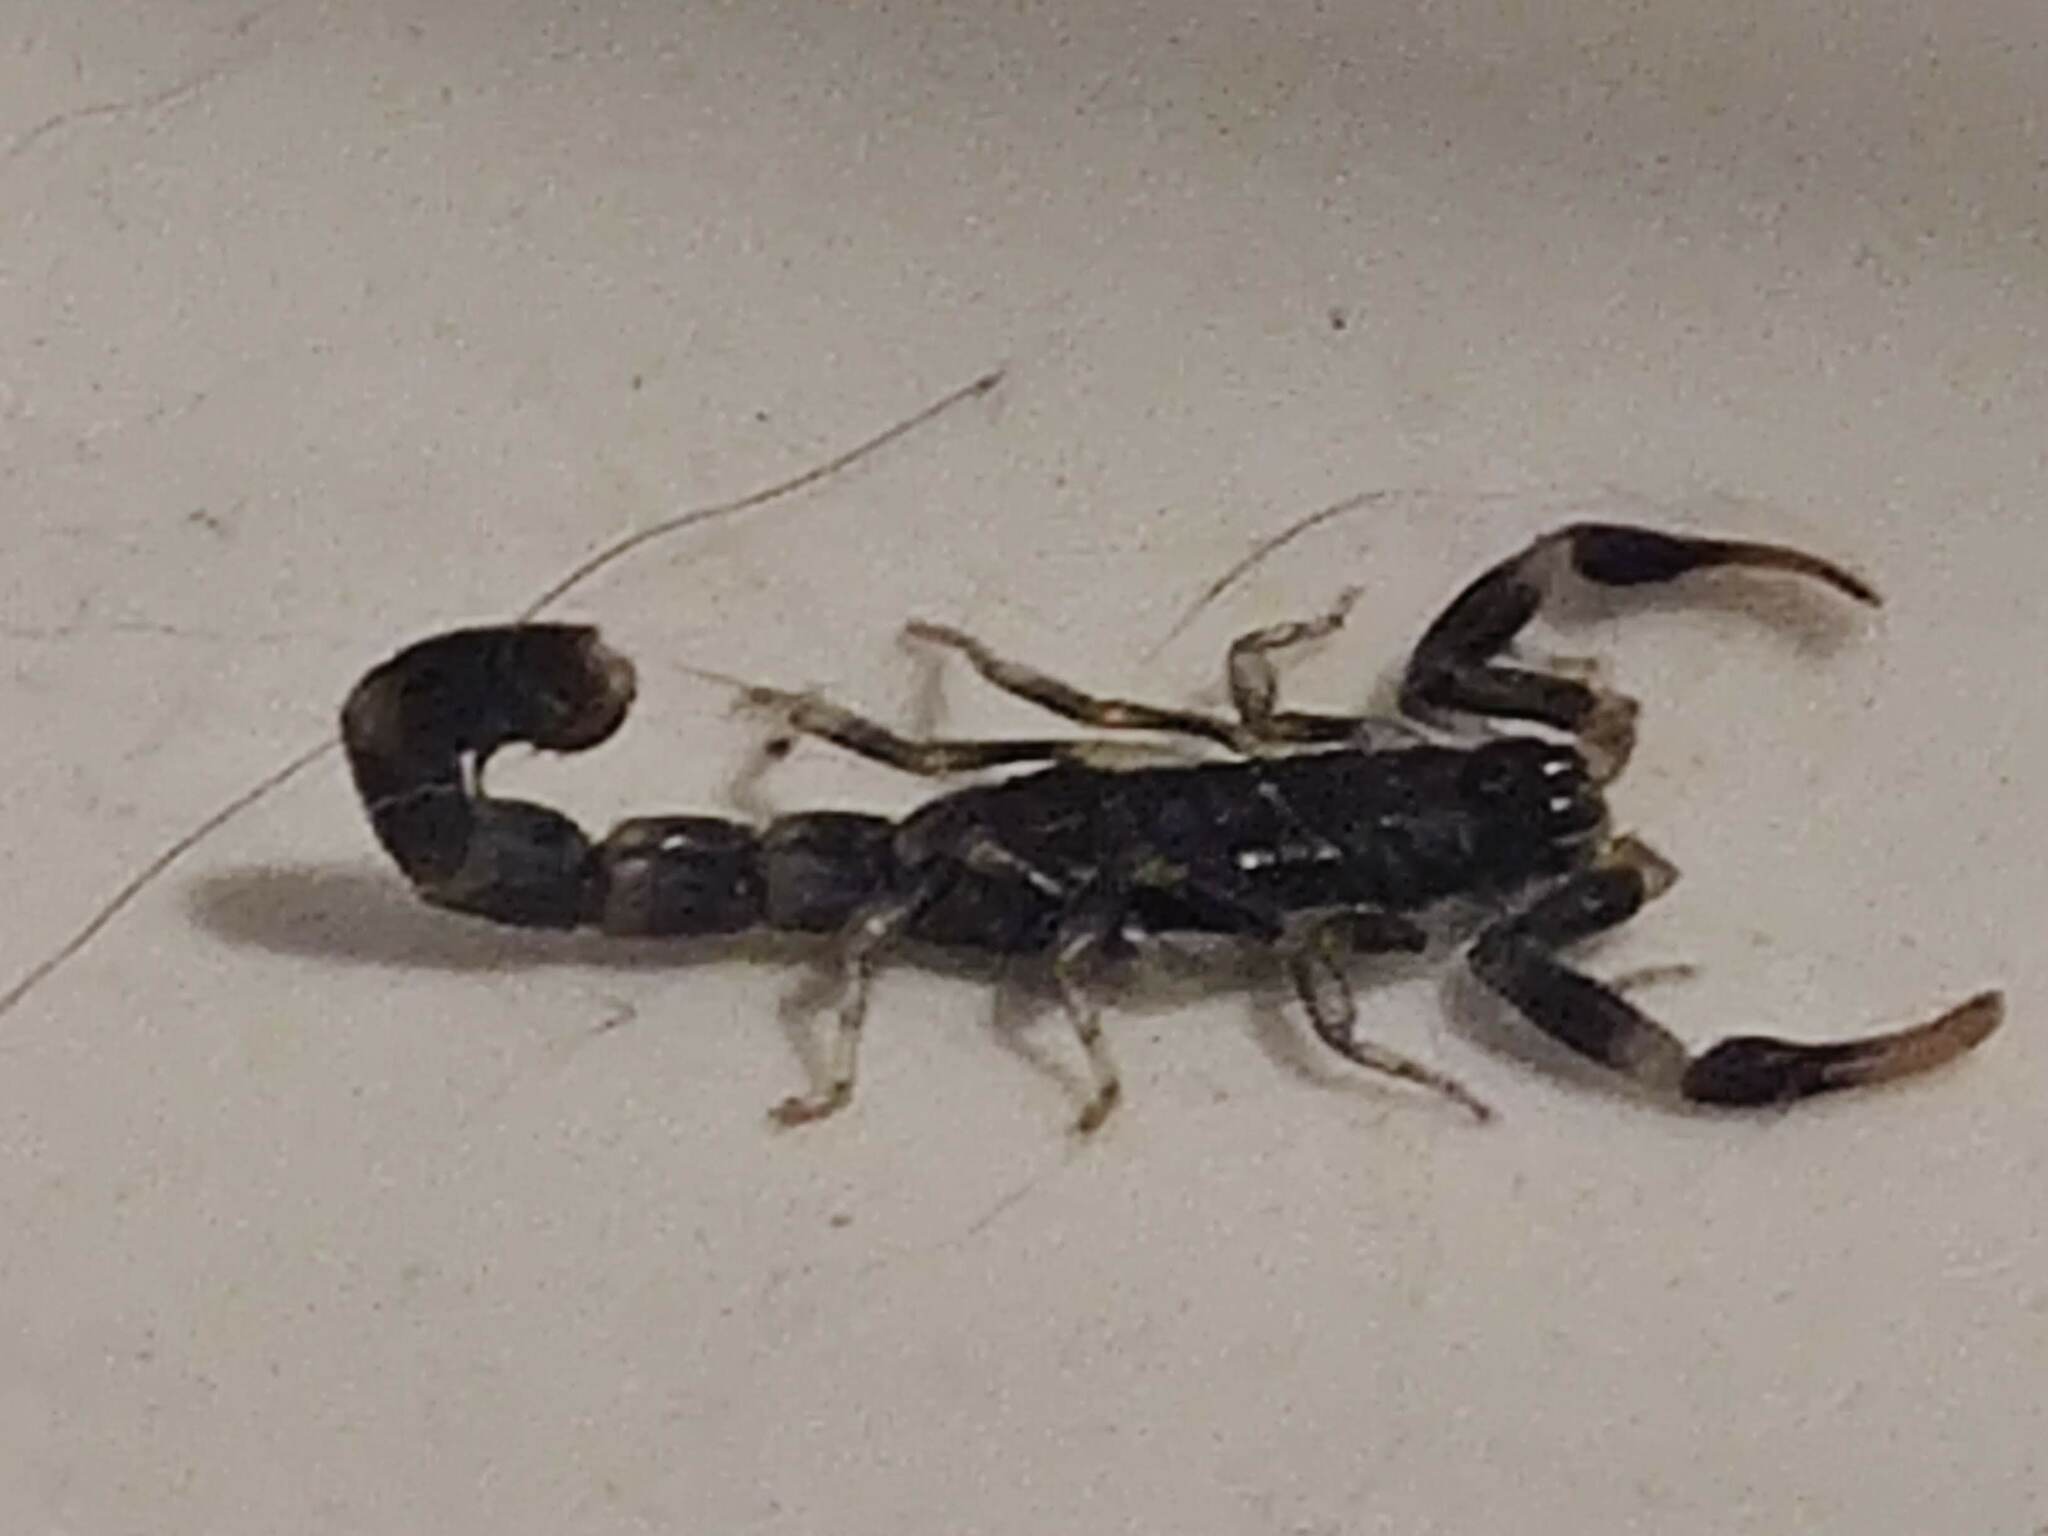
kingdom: Animalia
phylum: Arthropoda
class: Arachnida
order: Scorpiones
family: Buthidae
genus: Uroplectes
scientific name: Uroplectes flavoviridis
